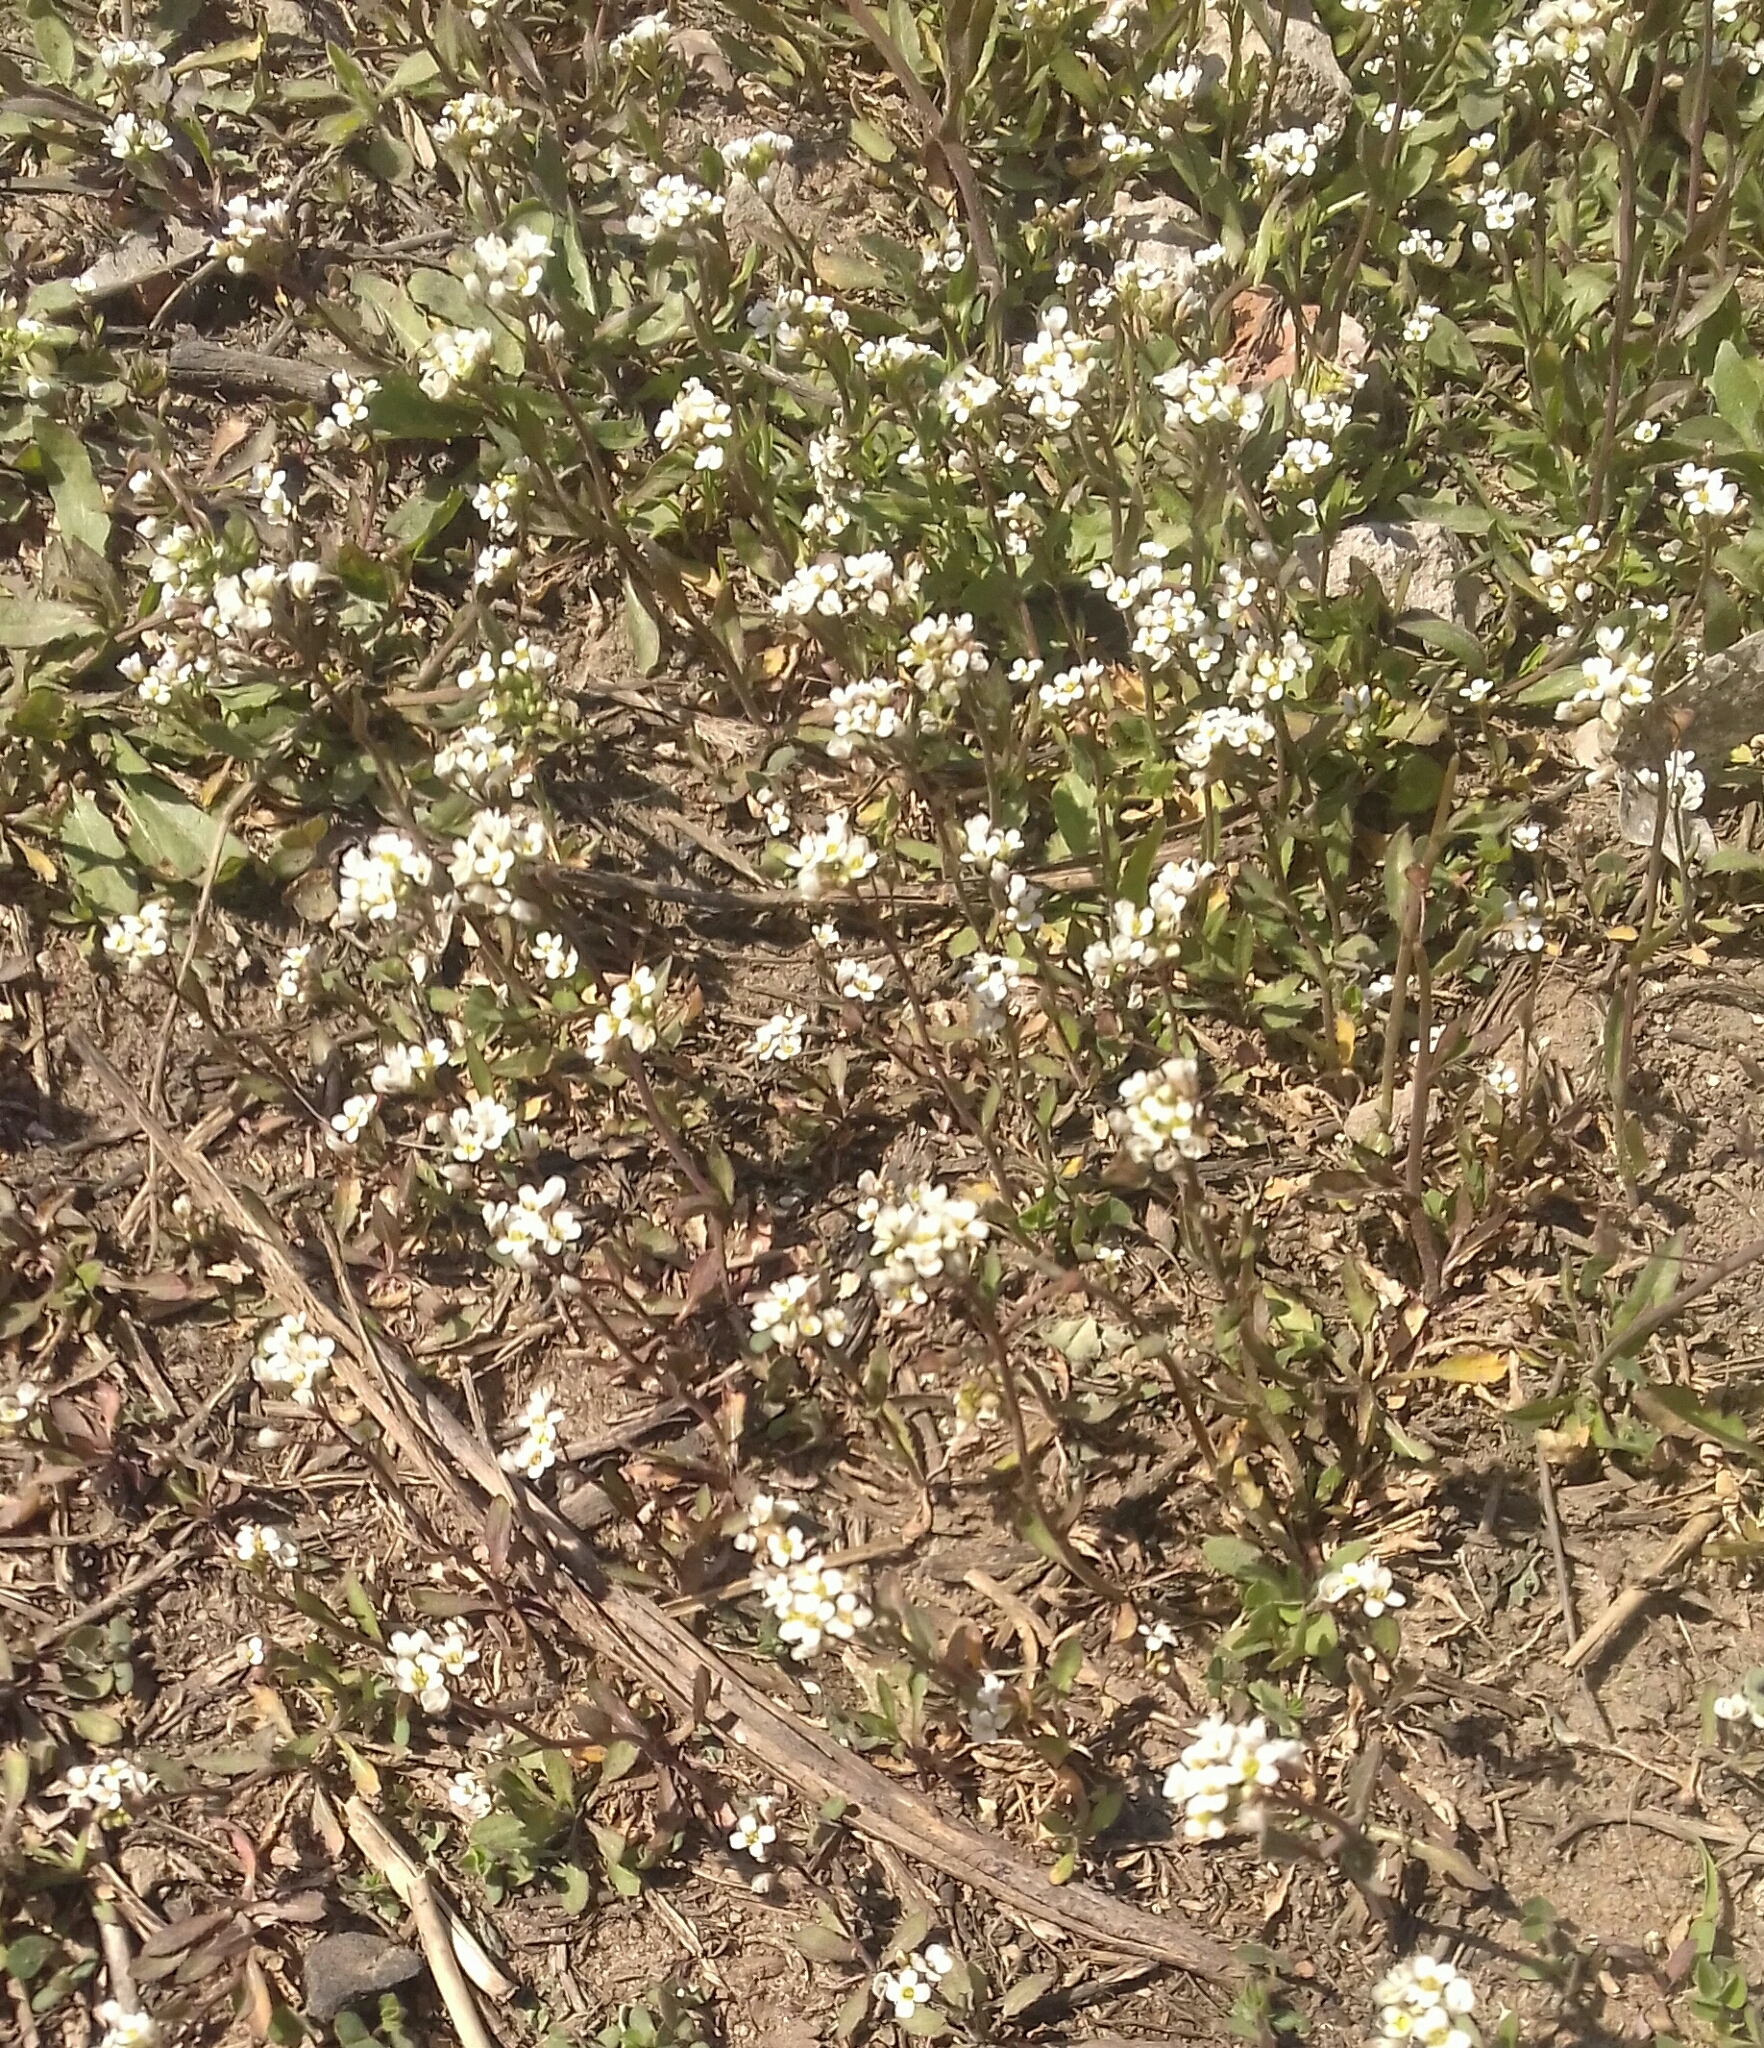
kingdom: Plantae
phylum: Tracheophyta
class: Magnoliopsida
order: Brassicales
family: Brassicaceae
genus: Capsella
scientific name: Capsella bursa-pastoris
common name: Shepherd's purse
